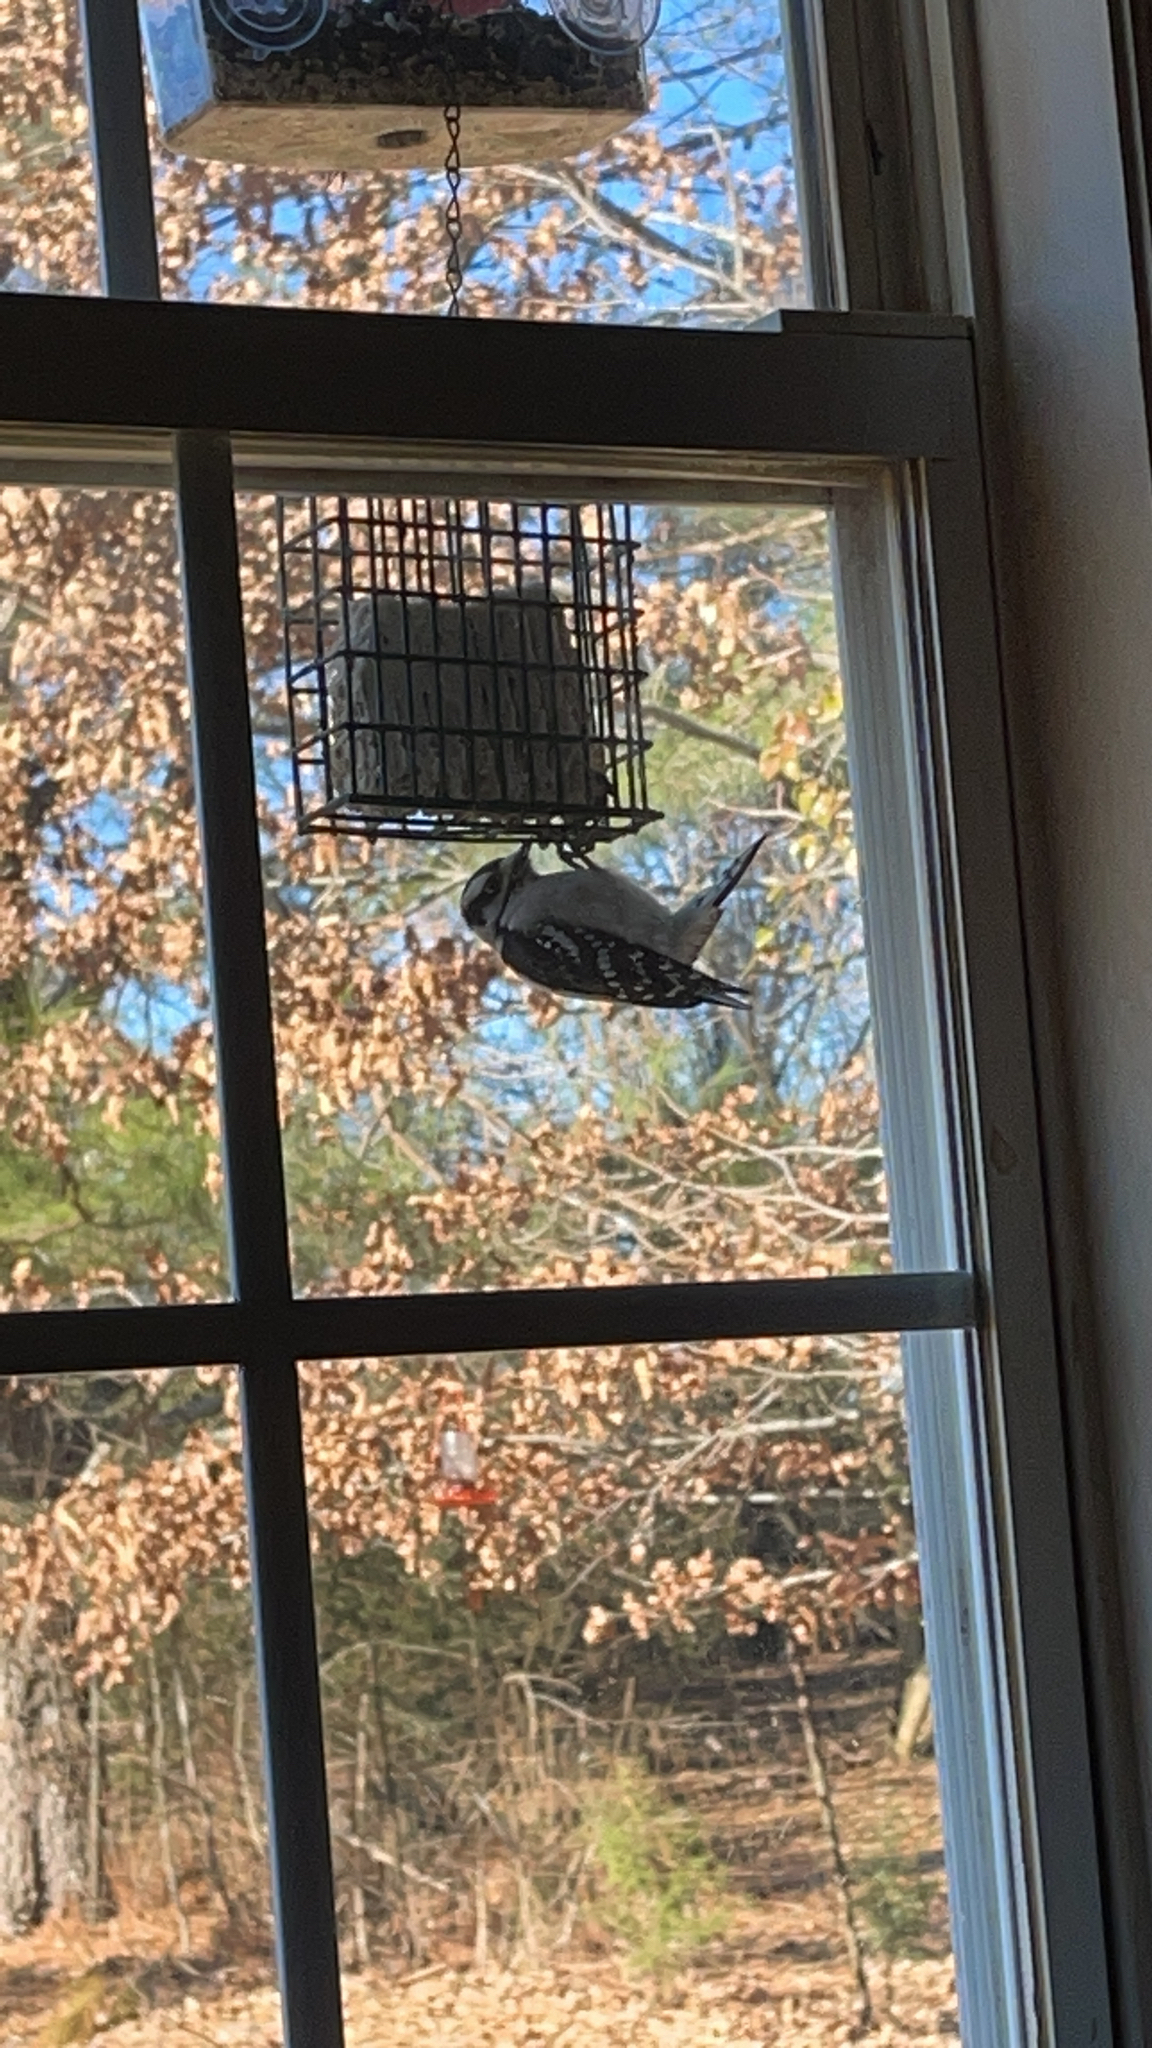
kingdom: Animalia
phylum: Chordata
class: Aves
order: Piciformes
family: Picidae
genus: Dryobates
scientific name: Dryobates pubescens
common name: Downy woodpecker
